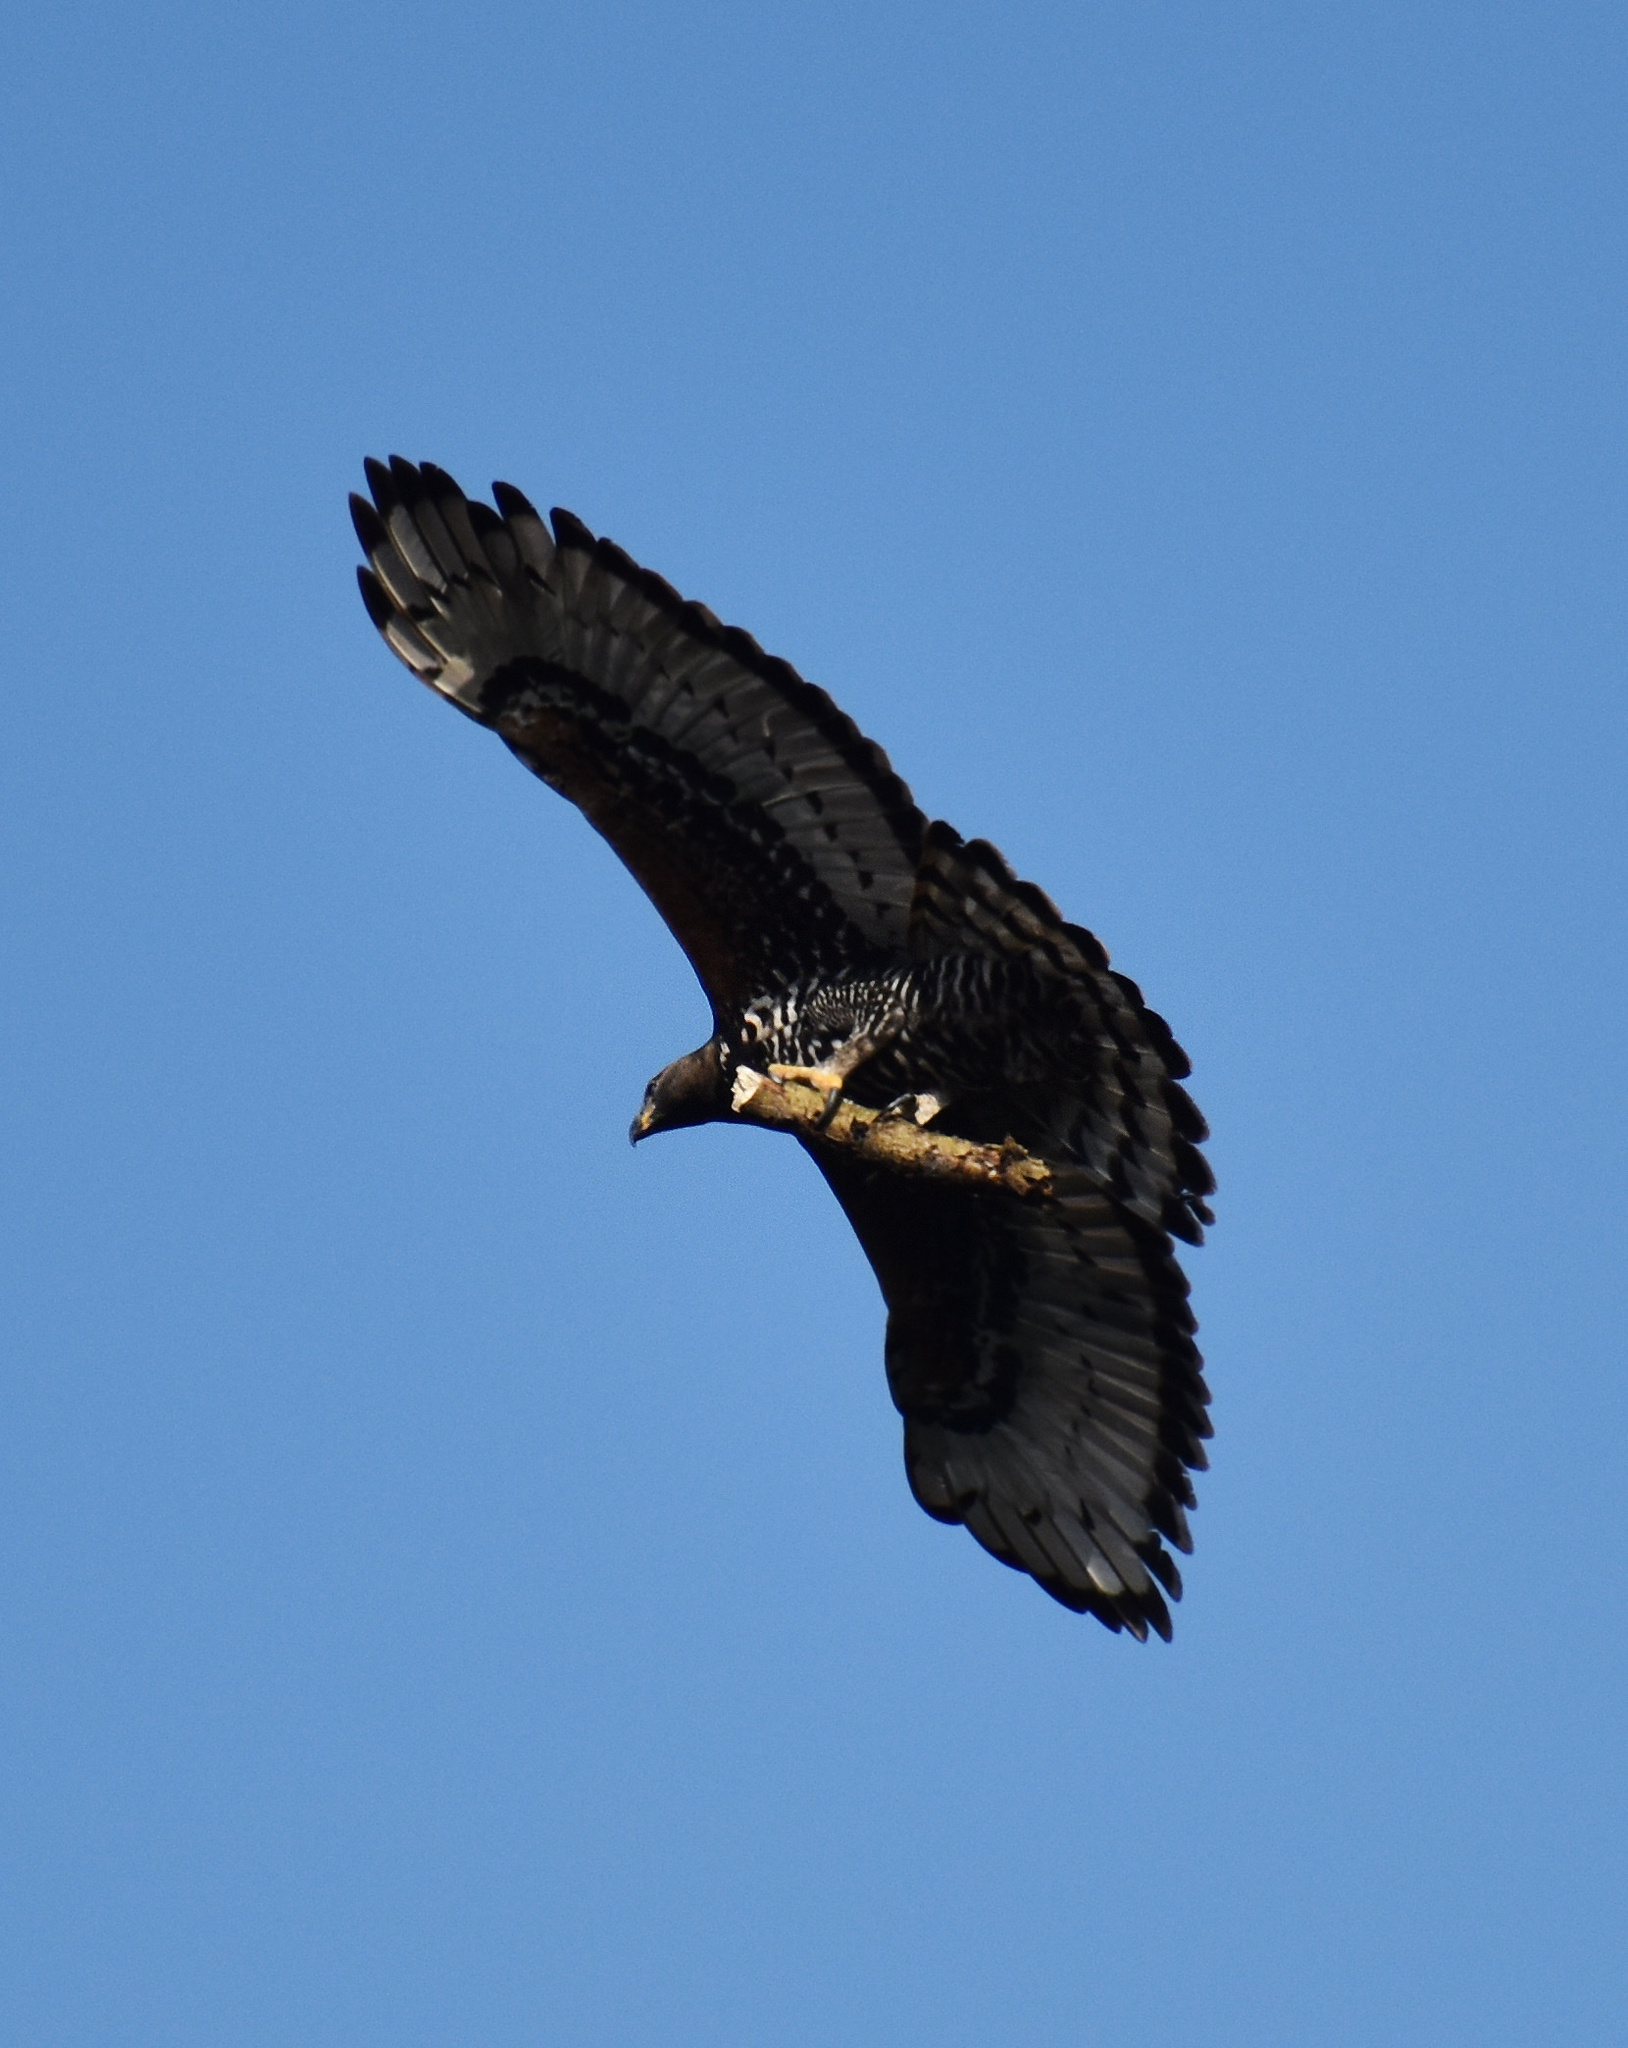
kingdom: Animalia
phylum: Chordata
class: Aves
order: Accipitriformes
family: Accipitridae
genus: Stephanoaetus
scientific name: Stephanoaetus coronatus
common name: Crowned eagle
